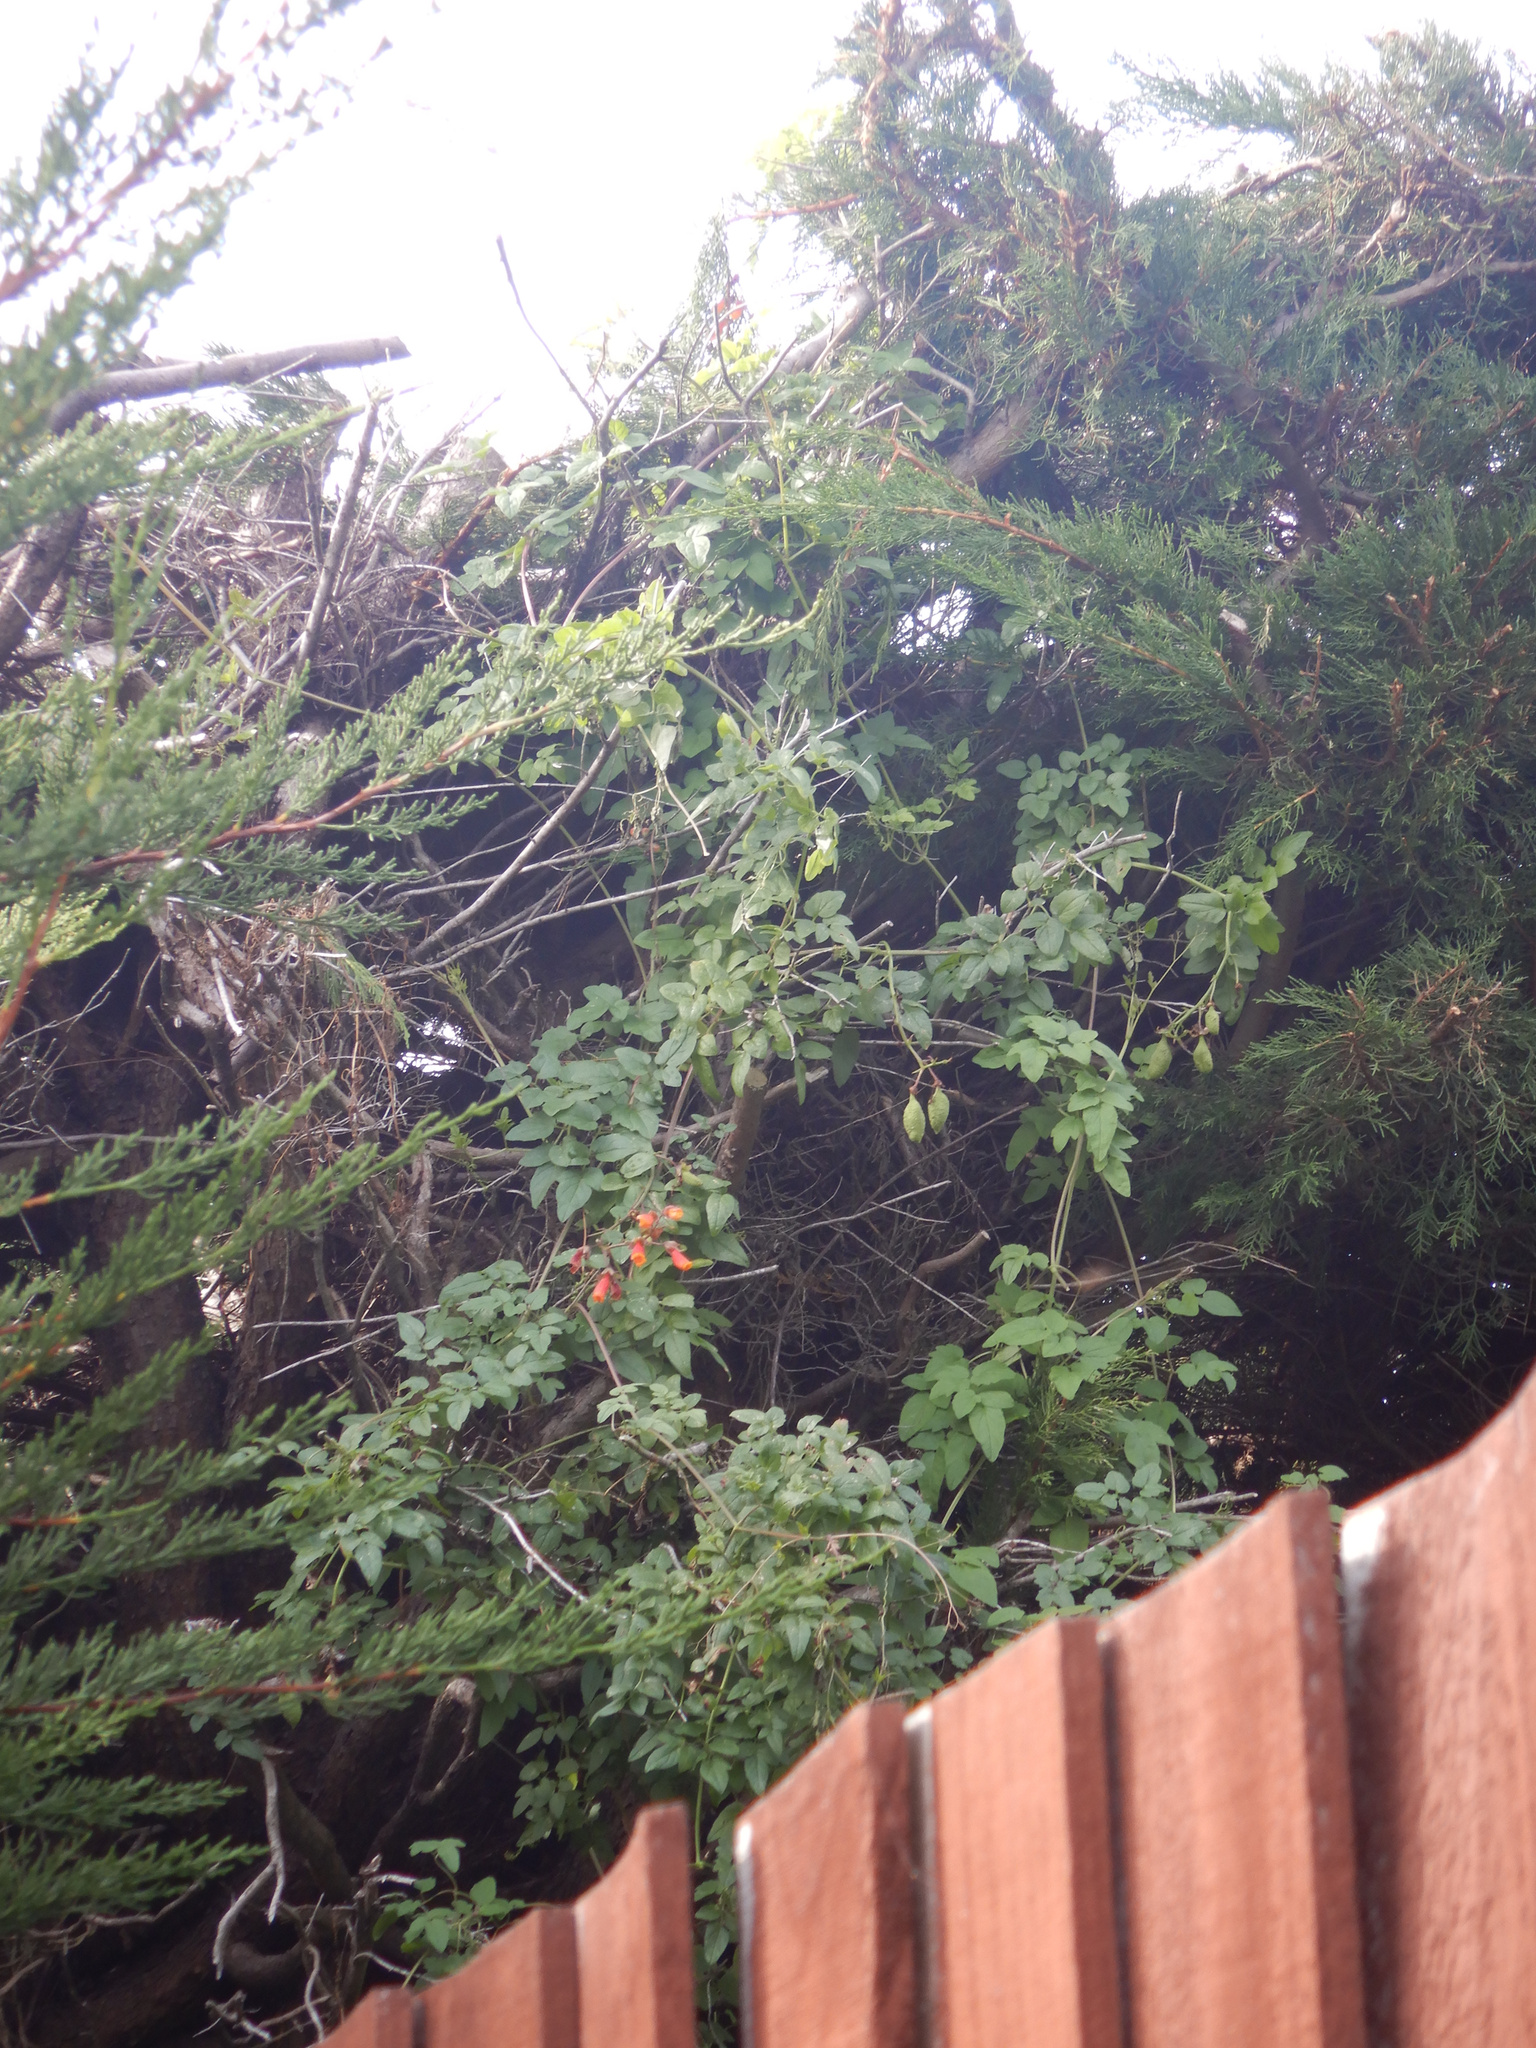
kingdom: Plantae
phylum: Tracheophyta
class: Magnoliopsida
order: Lamiales
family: Bignoniaceae
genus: Eccremocarpus
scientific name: Eccremocarpus scaber
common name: Chilean glory-flower
